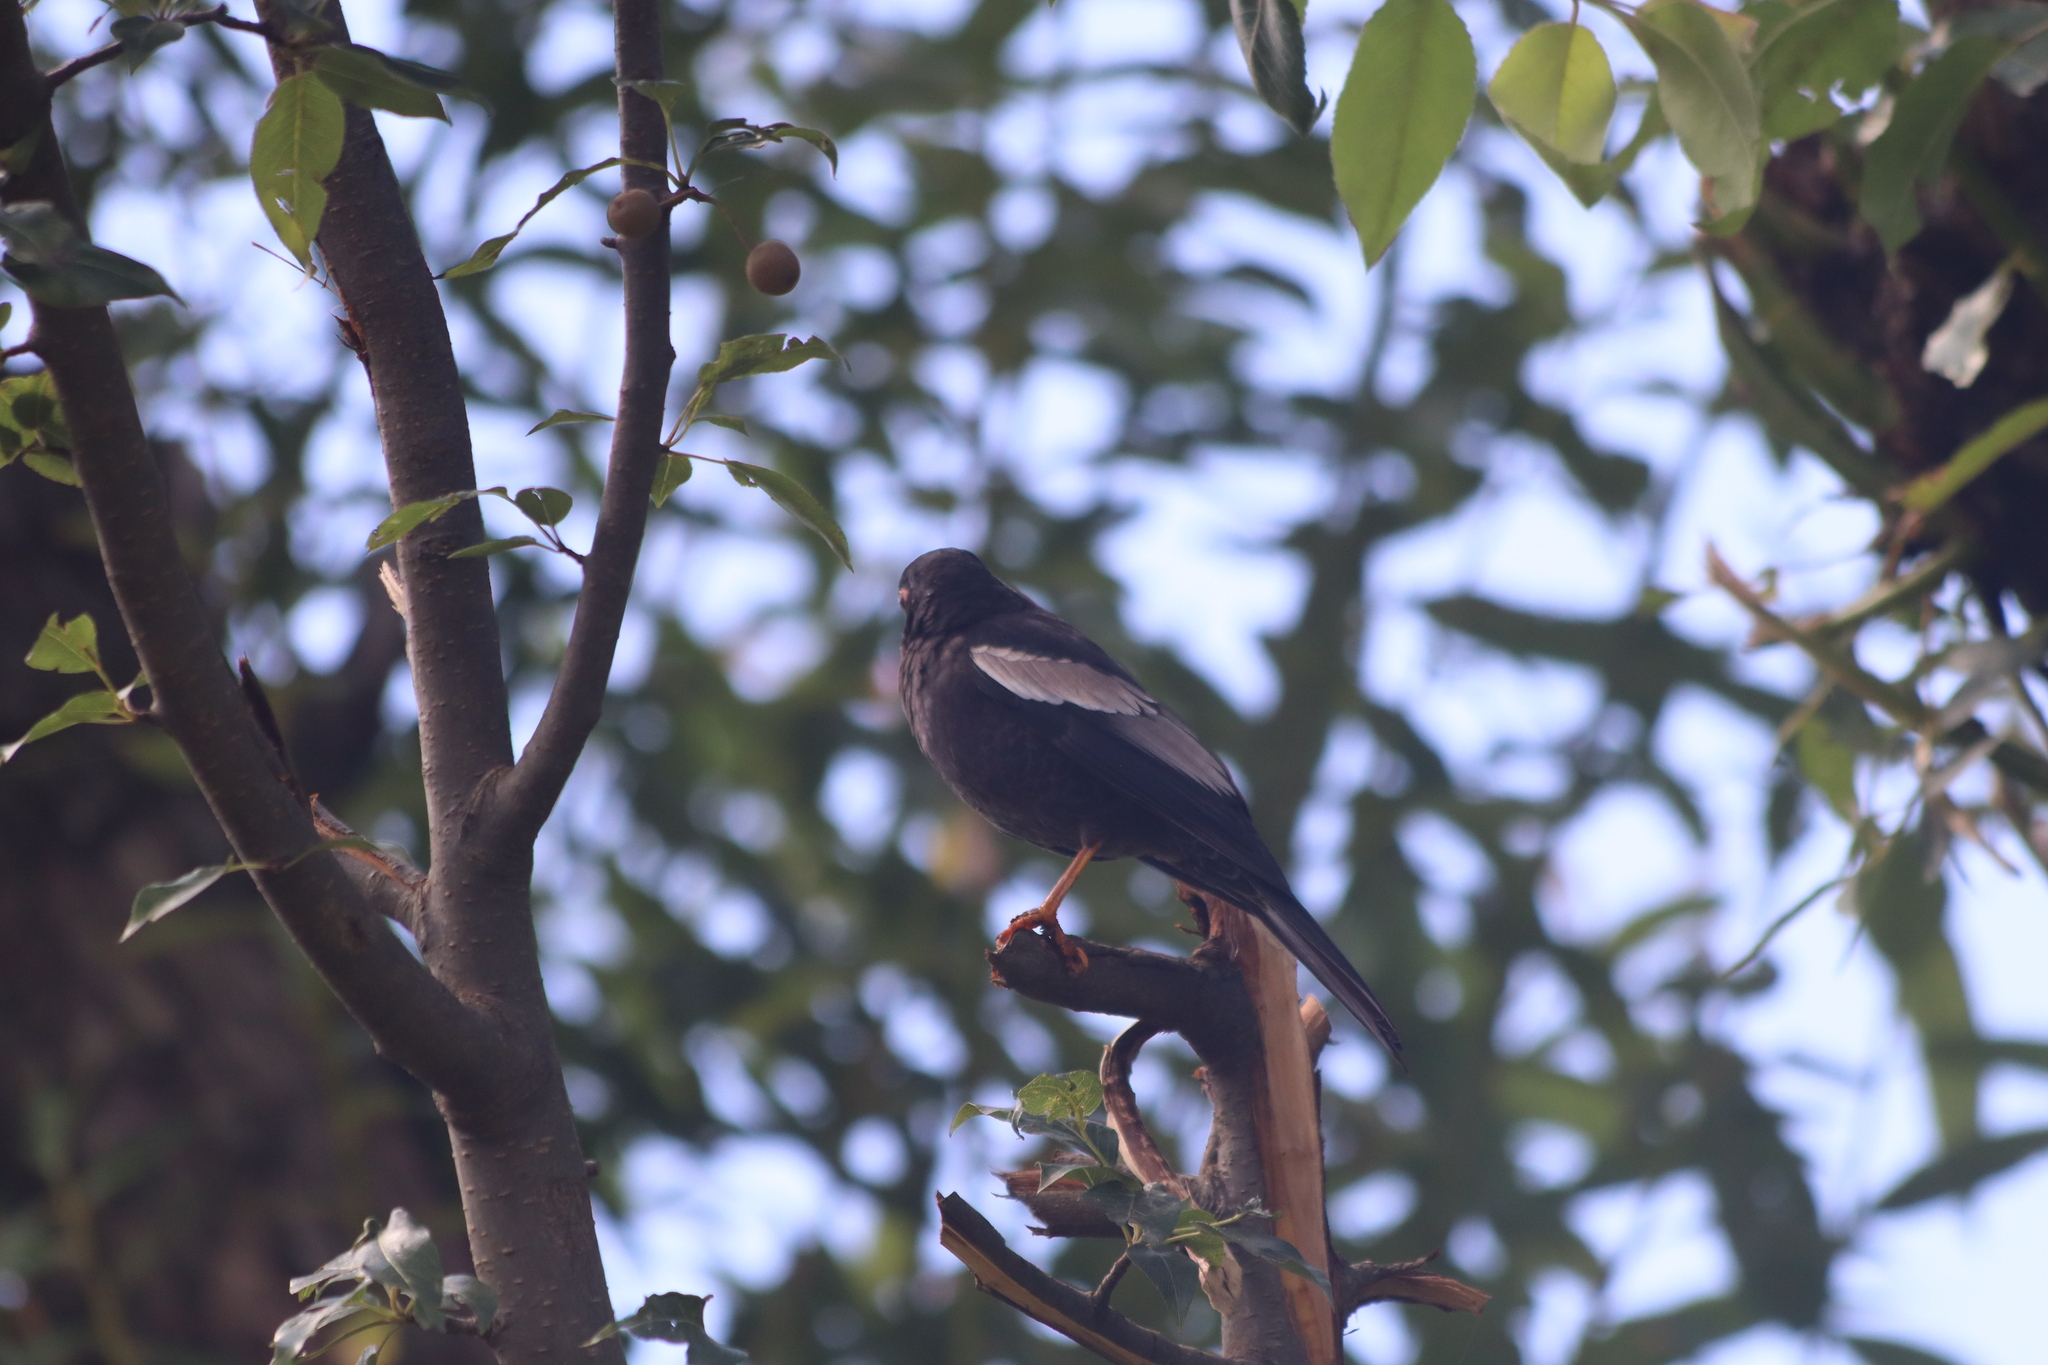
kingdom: Animalia
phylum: Chordata
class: Aves
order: Passeriformes
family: Turdidae
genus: Turdus
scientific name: Turdus boulboul
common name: Grey-winged blackbird
